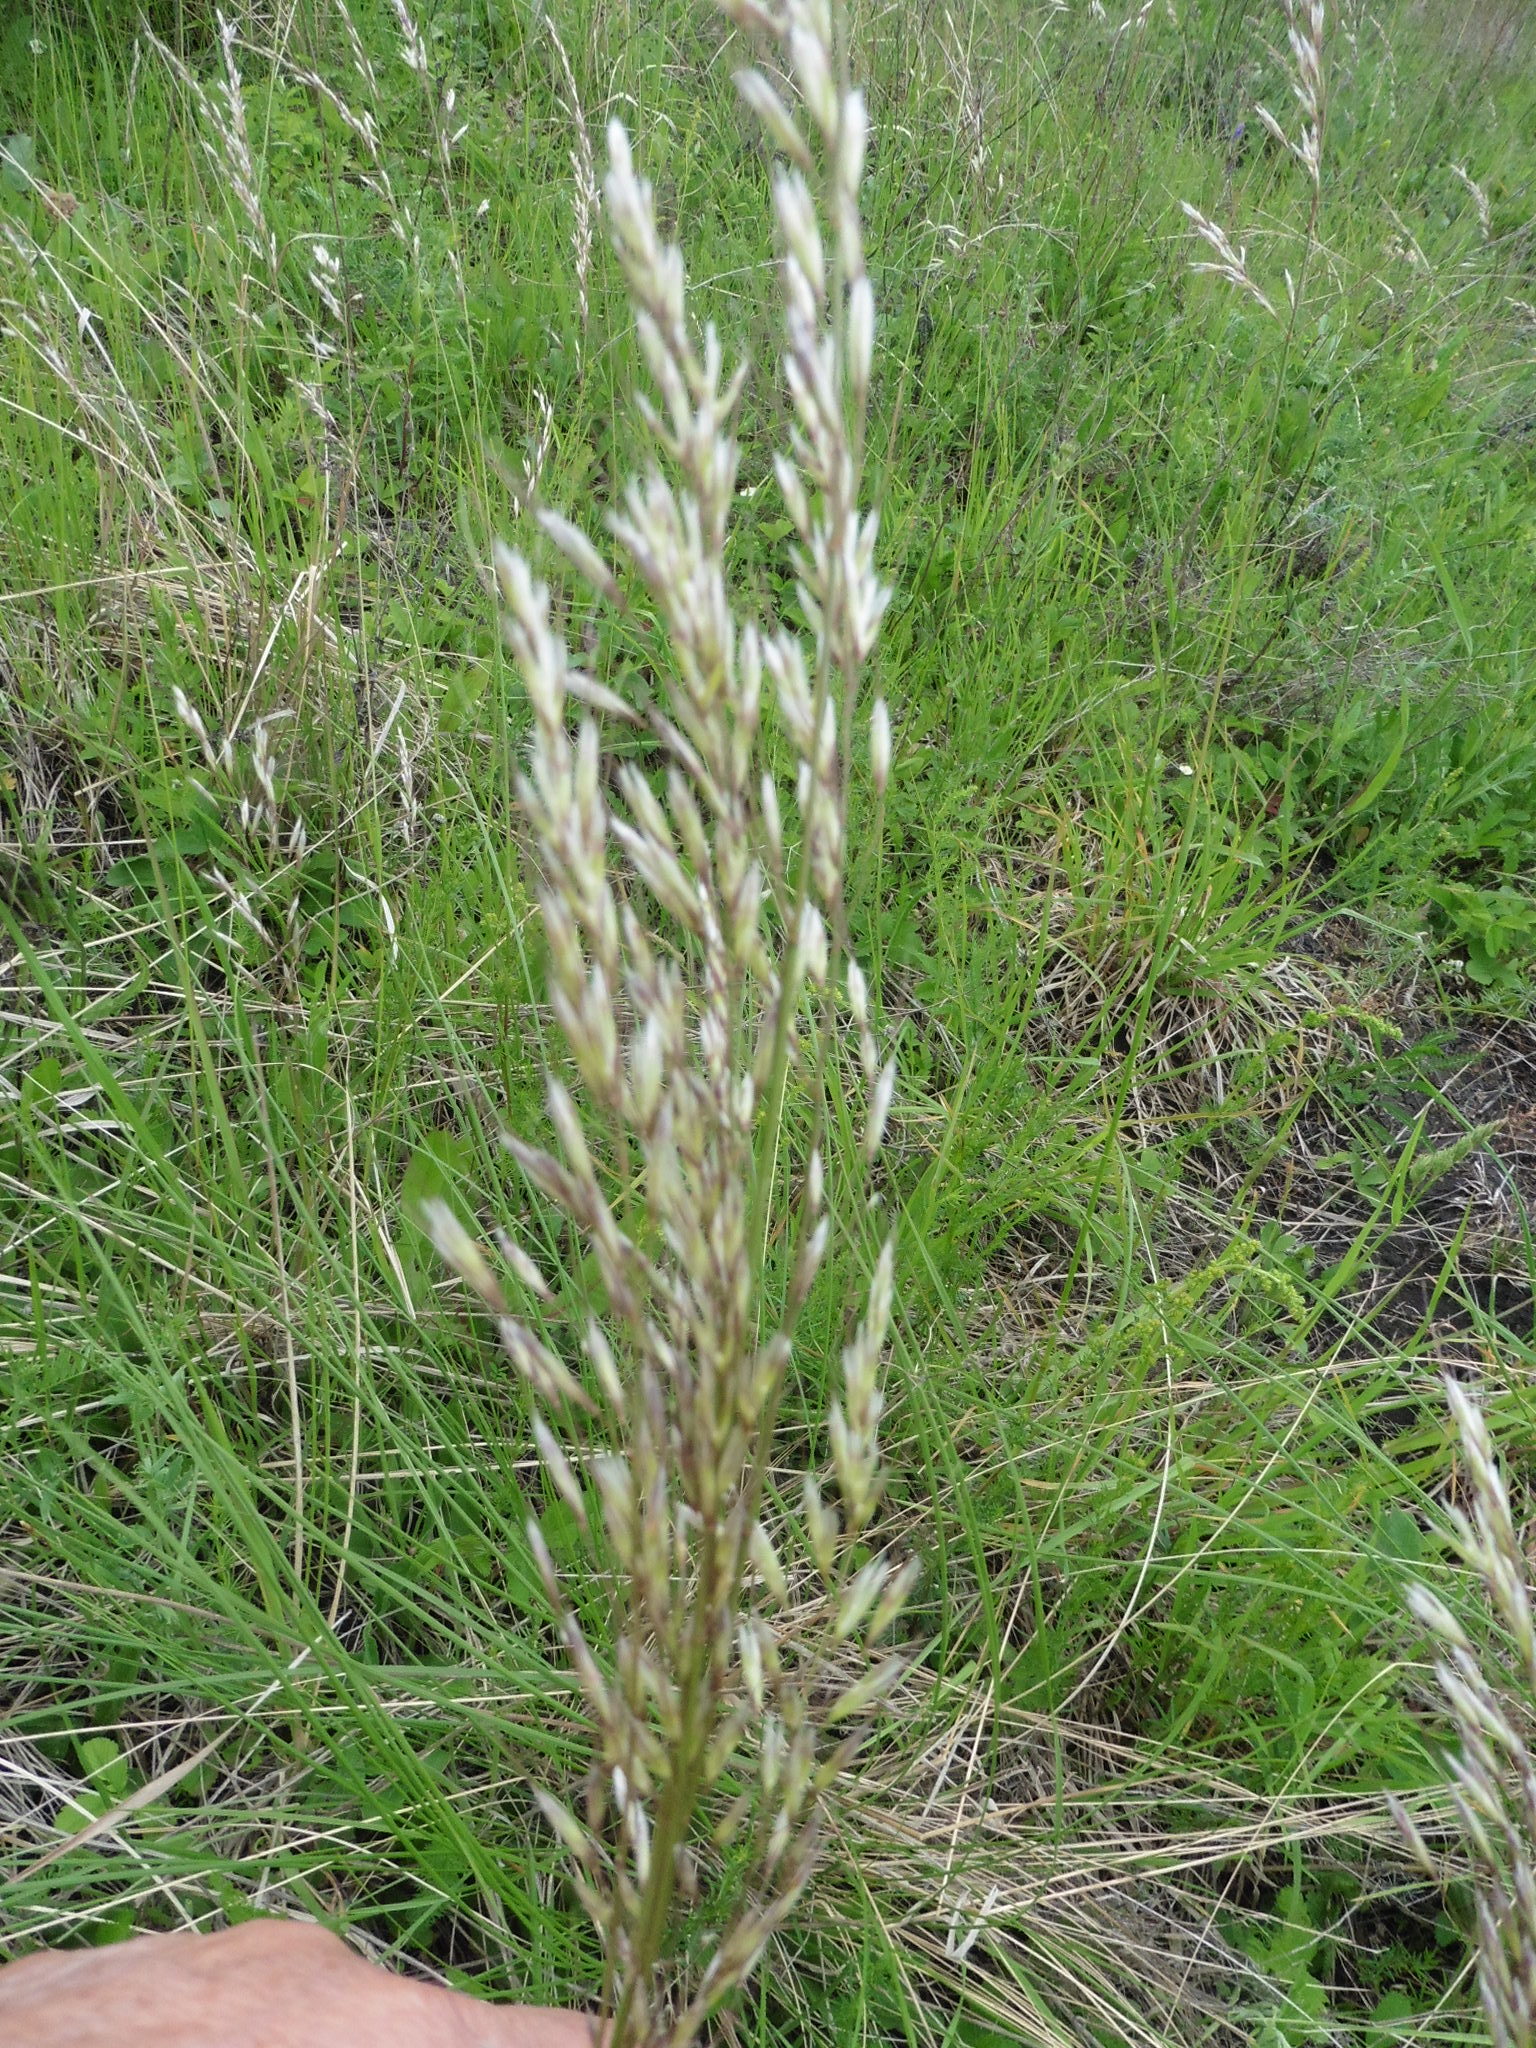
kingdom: Plantae
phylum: Tracheophyta
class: Liliopsida
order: Poales
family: Poaceae
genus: Avenula
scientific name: Avenula pubescens
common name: Downy alpine oatgrass
